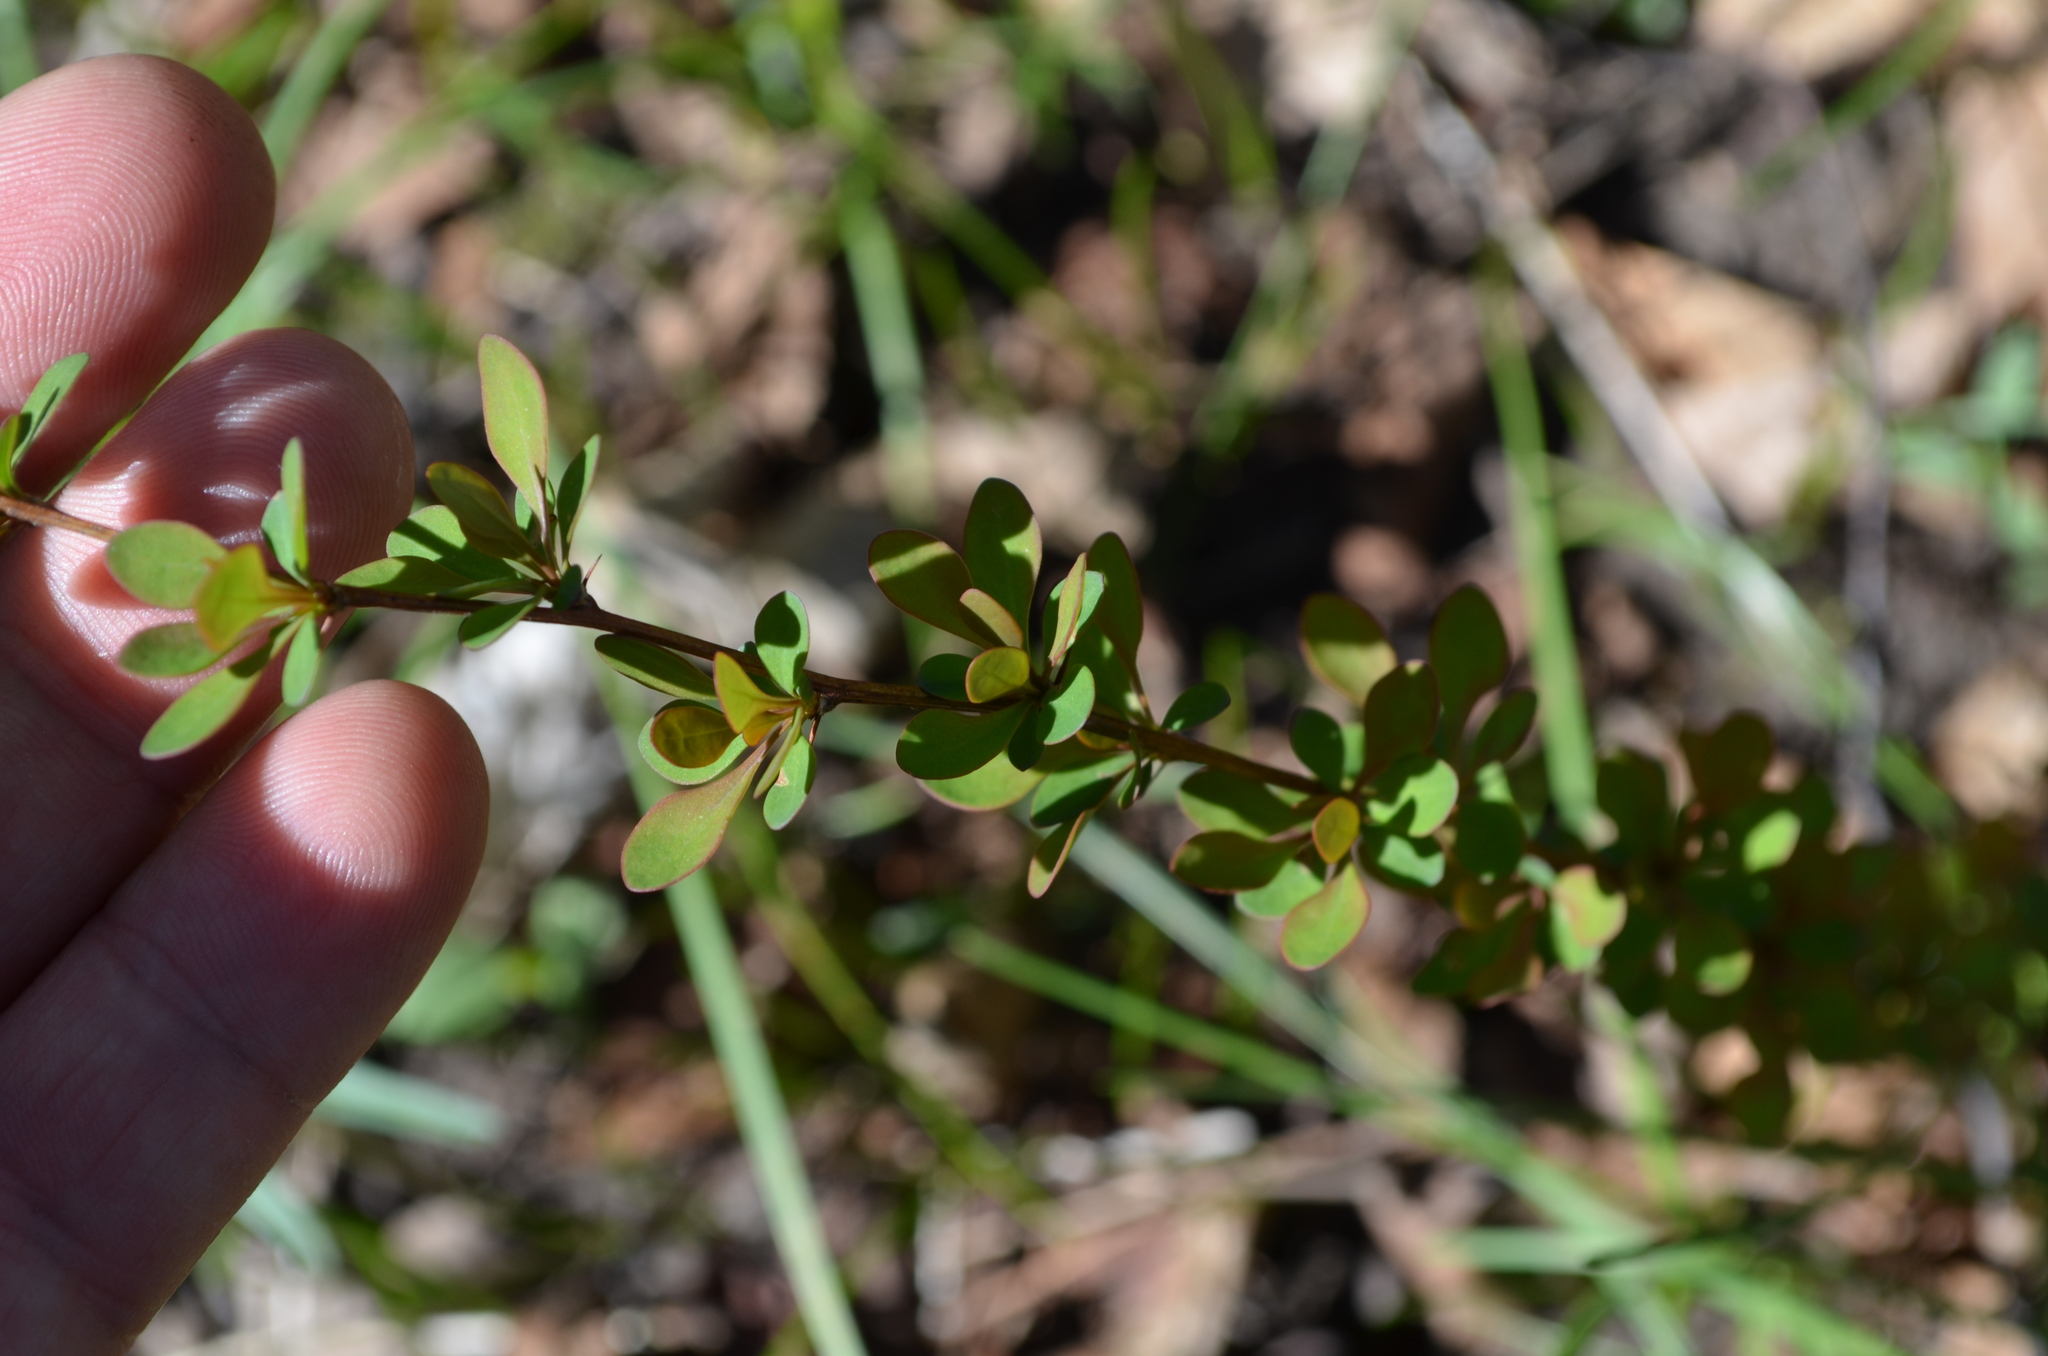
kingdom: Plantae
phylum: Tracheophyta
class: Magnoliopsida
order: Ranunculales
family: Berberidaceae
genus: Berberis
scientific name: Berberis thunbergii
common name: Japanese barberry
